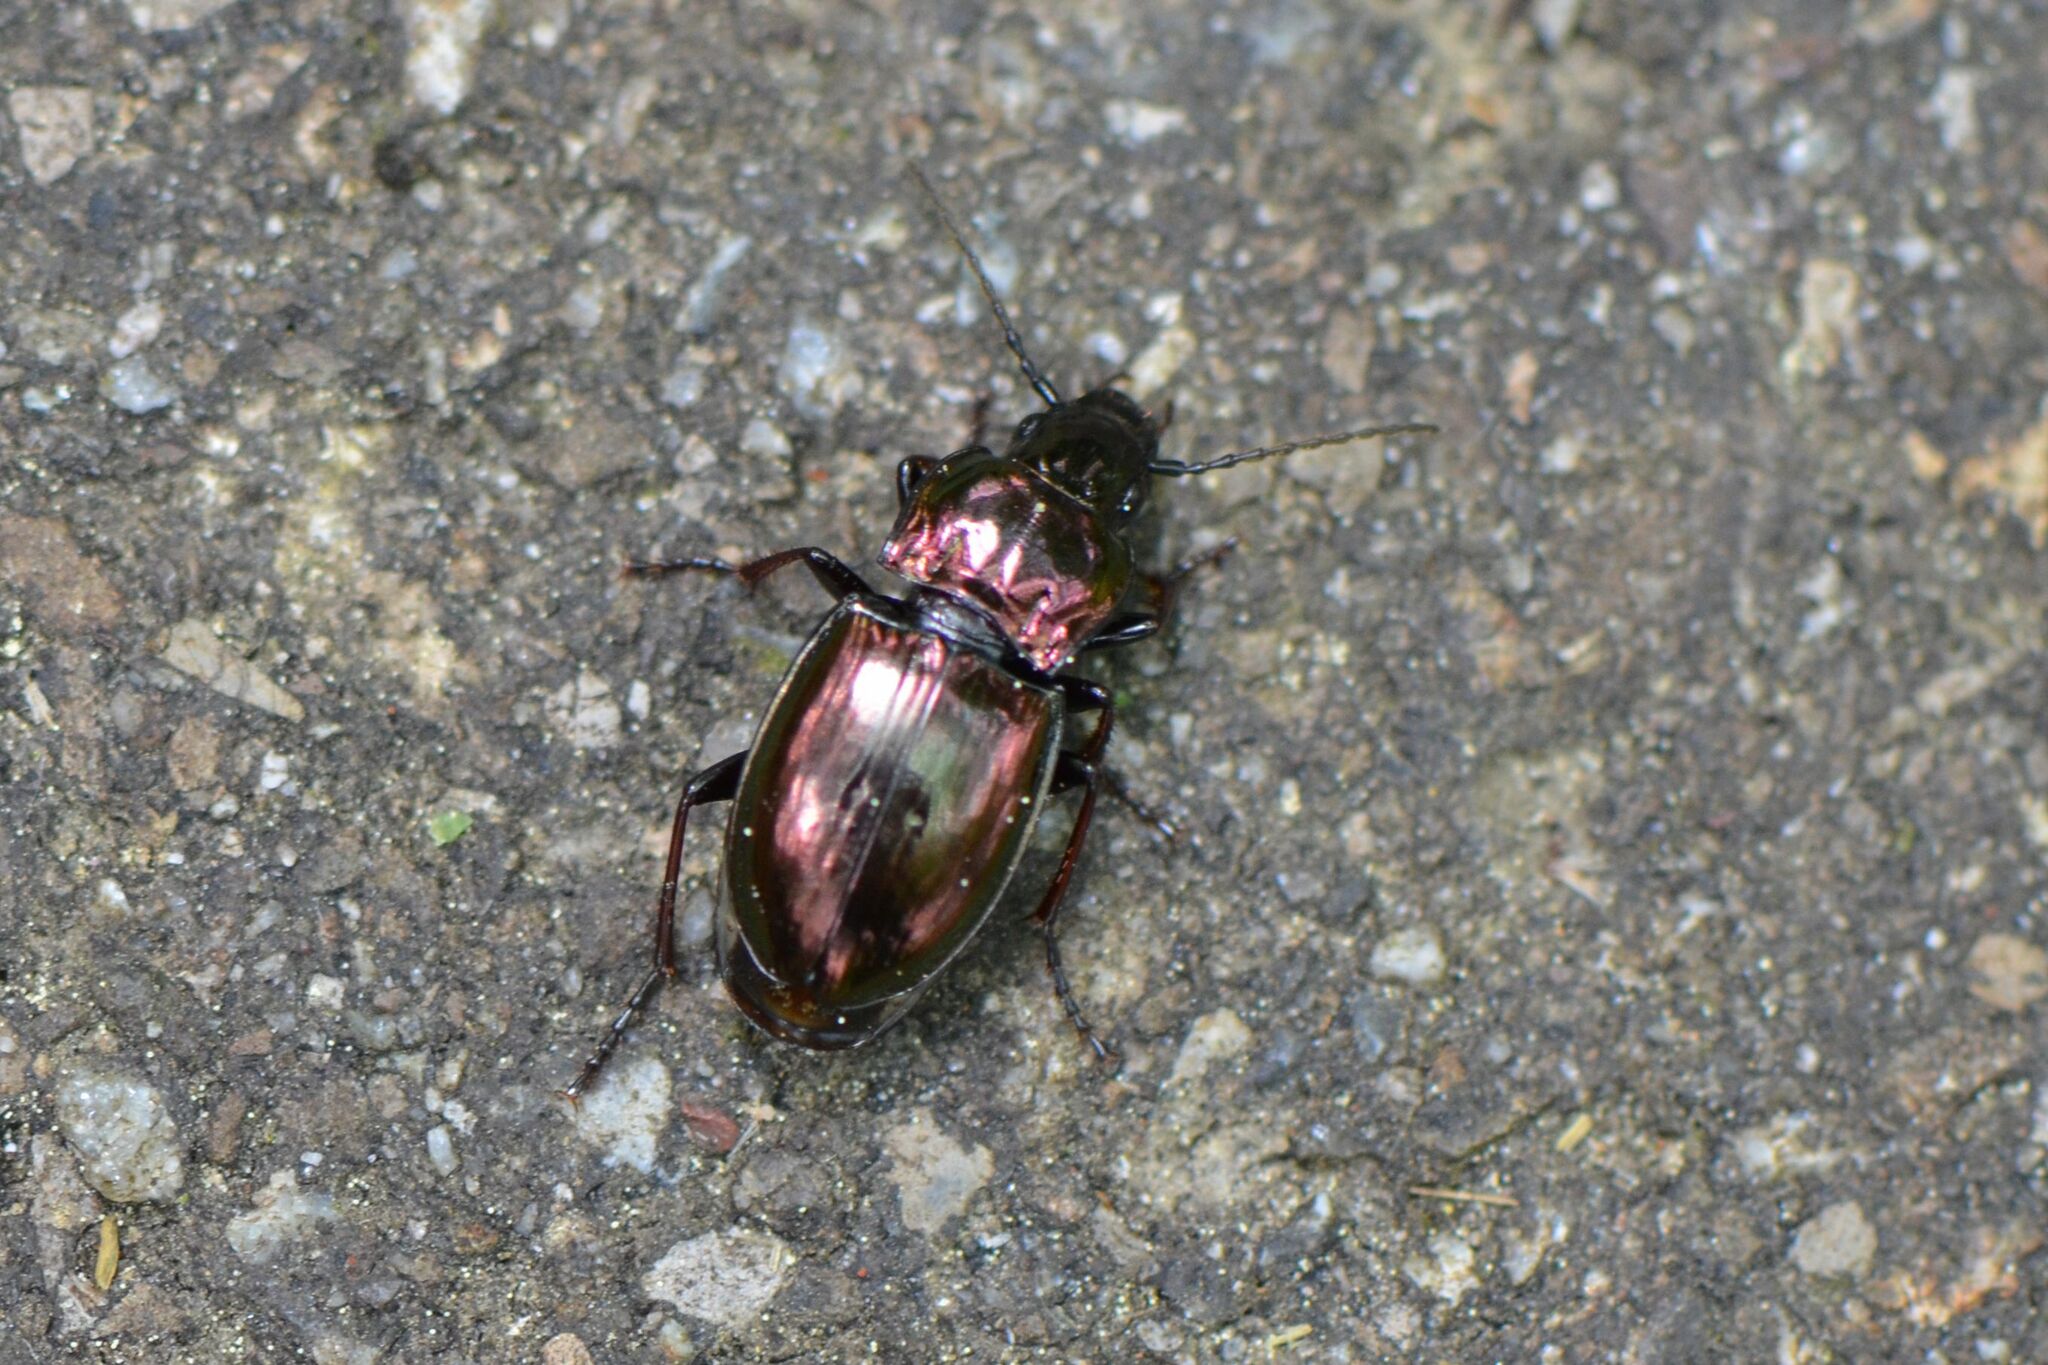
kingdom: Animalia
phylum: Arthropoda
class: Insecta
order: Coleoptera
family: Carabidae
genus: Pterostichus
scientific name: Pterostichus burmeisteri
